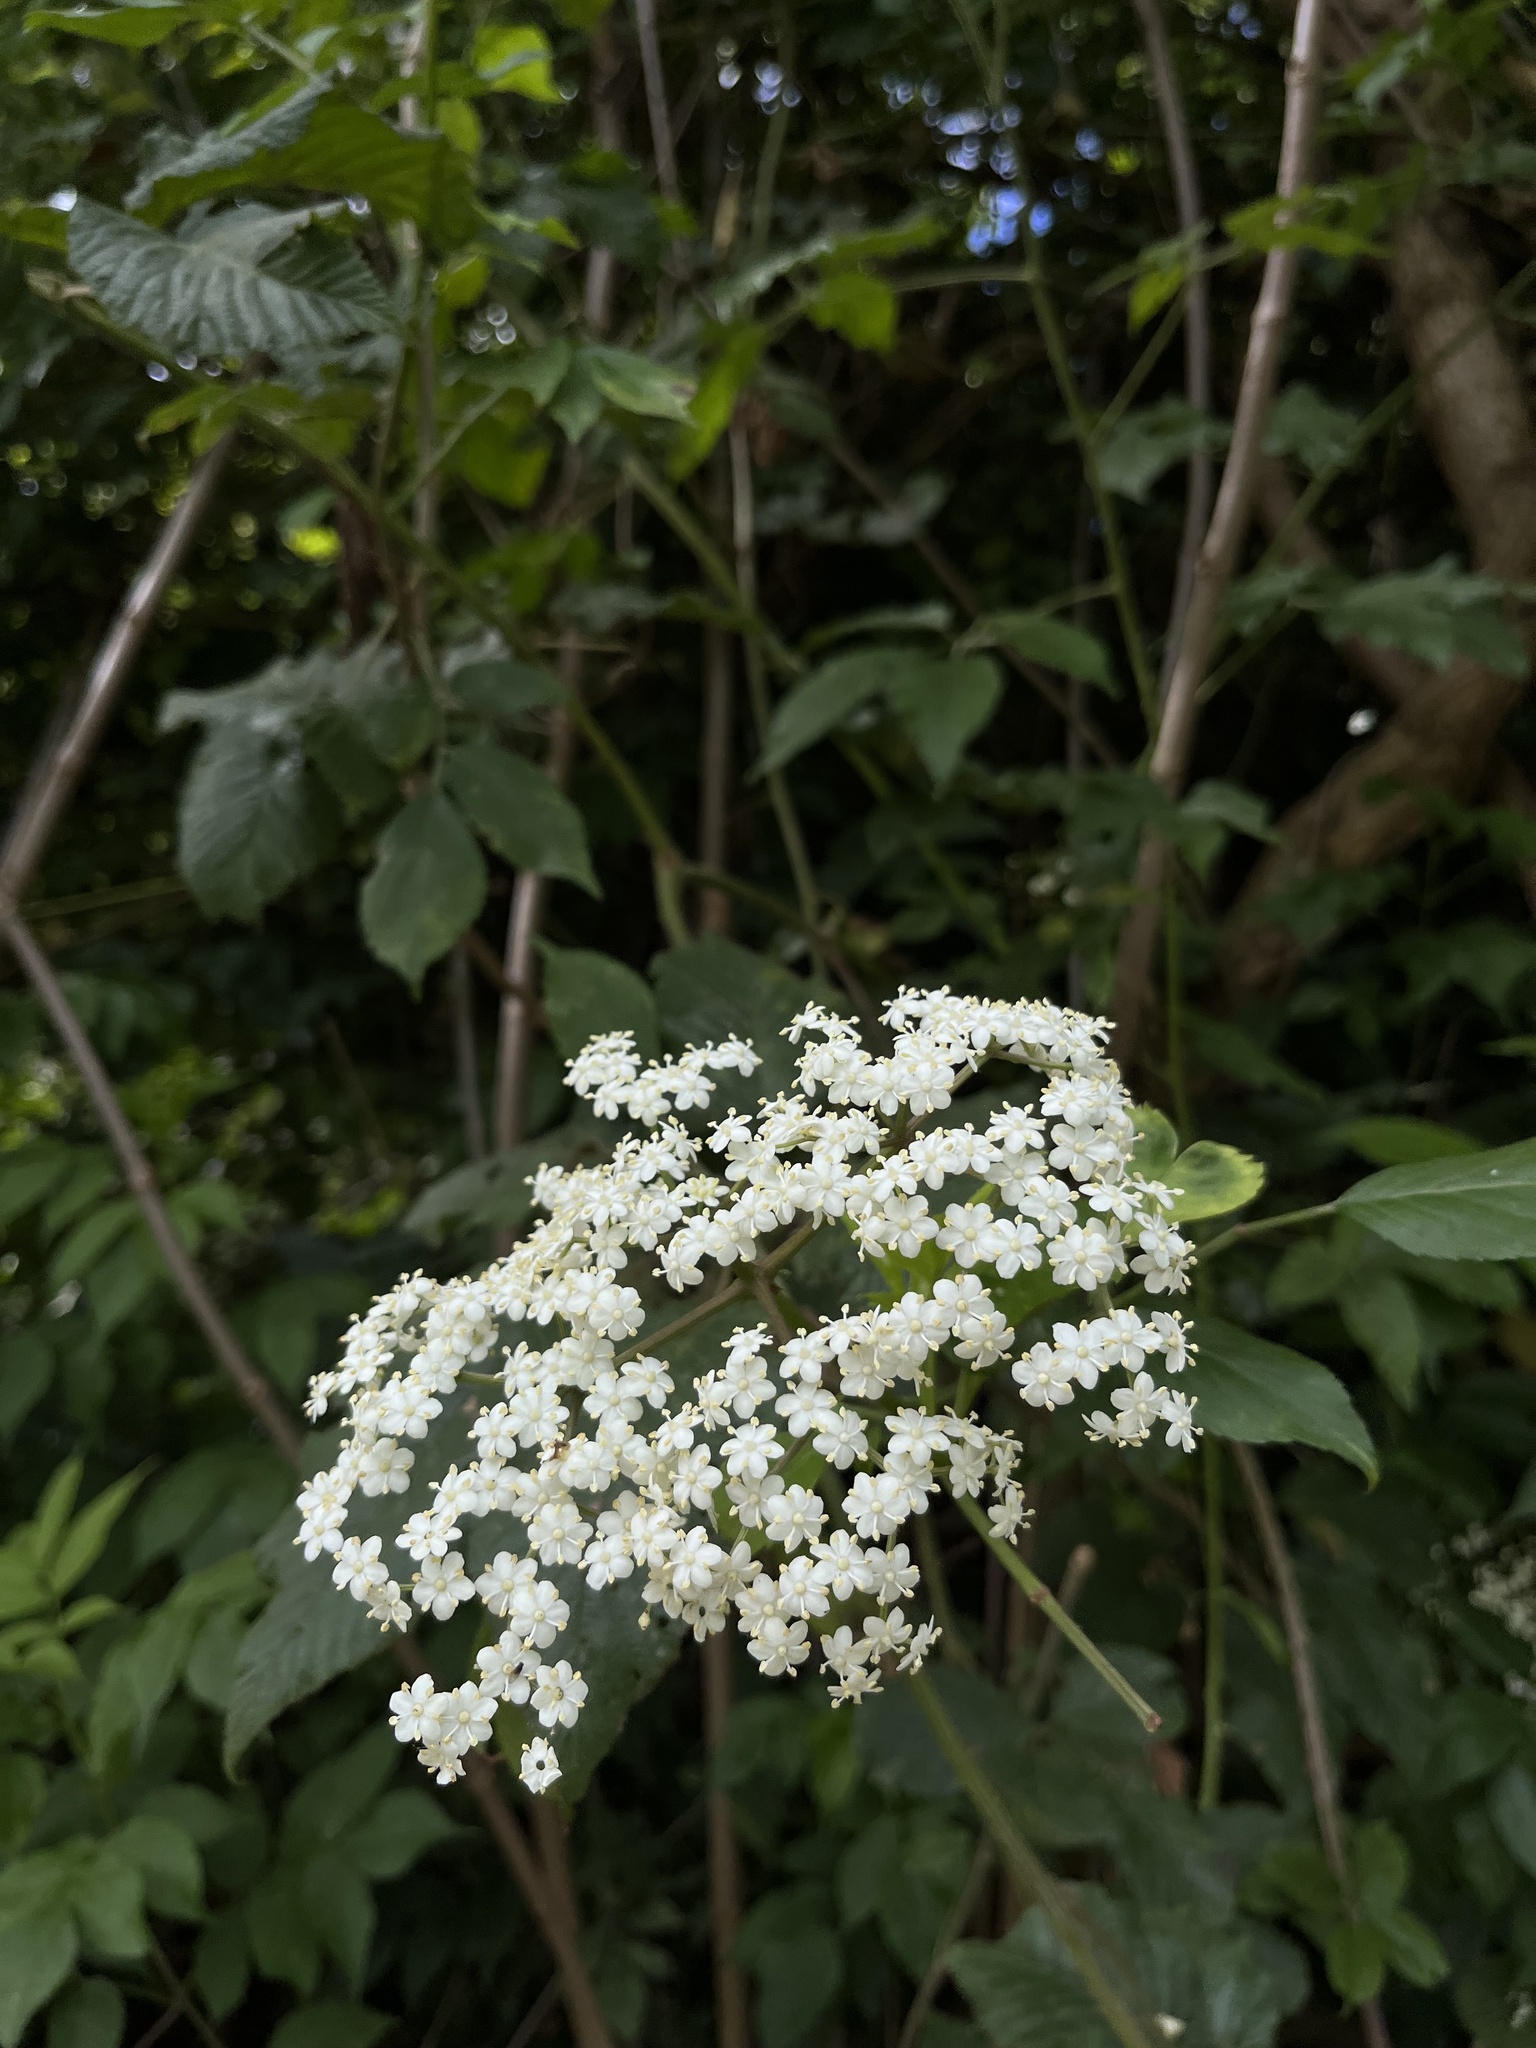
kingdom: Plantae
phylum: Tracheophyta
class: Magnoliopsida
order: Dipsacales
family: Viburnaceae
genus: Sambucus
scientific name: Sambucus nigra
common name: Elder
